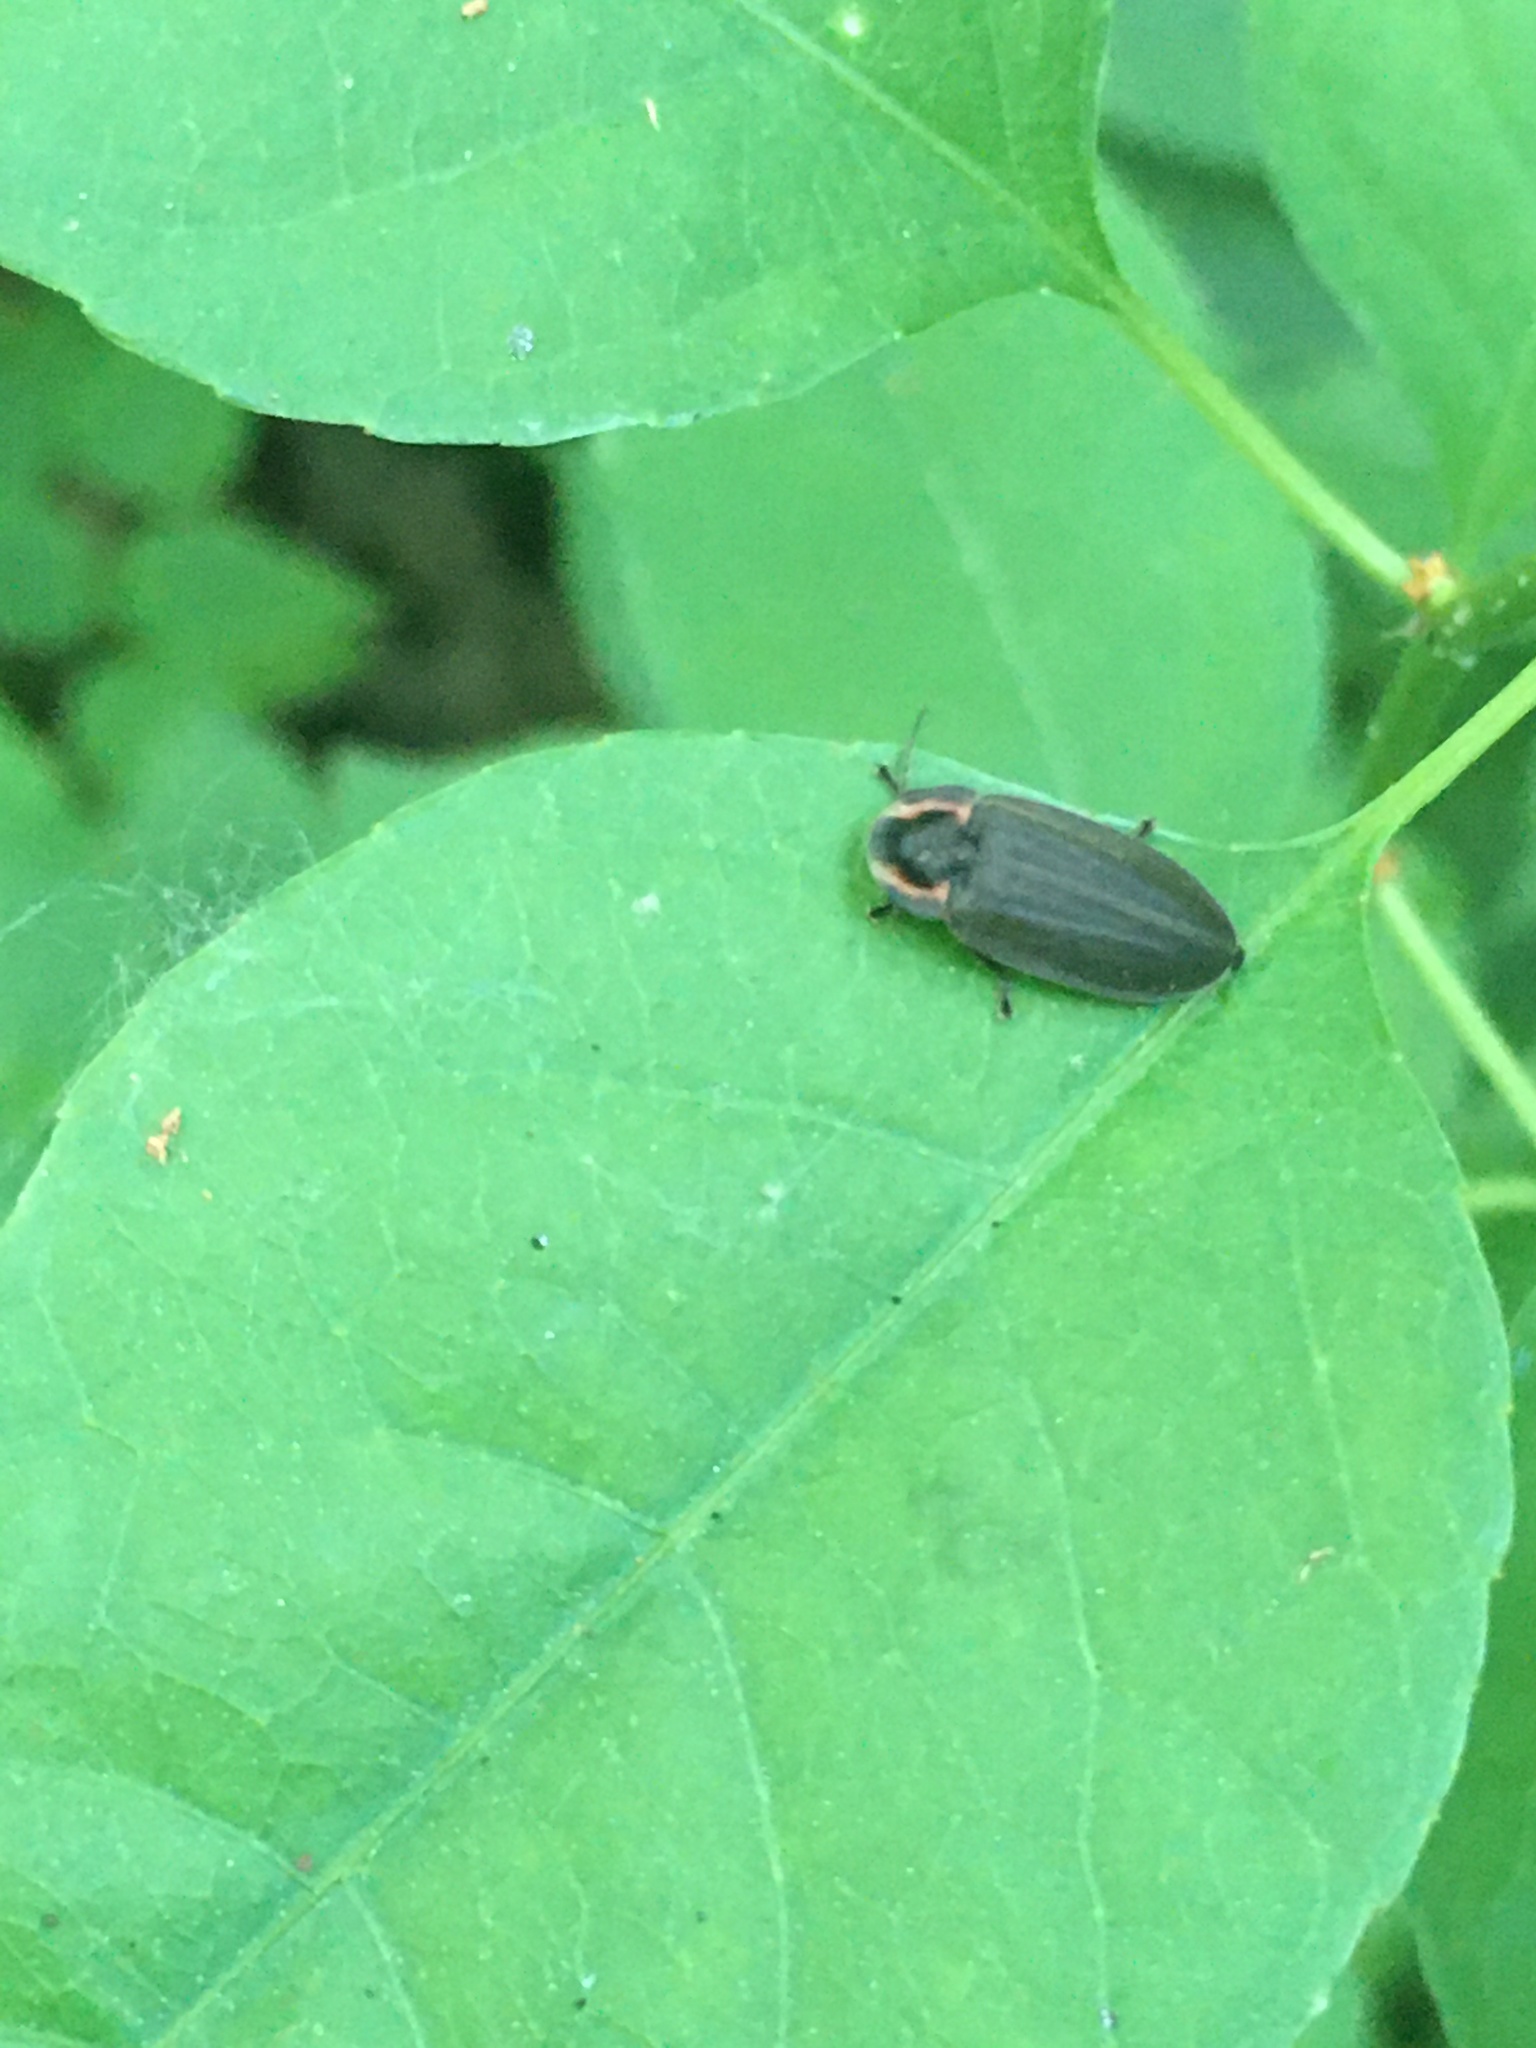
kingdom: Animalia
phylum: Arthropoda
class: Insecta
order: Coleoptera
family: Lampyridae
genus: Photinus
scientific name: Photinus corrusca
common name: Winter firefly
